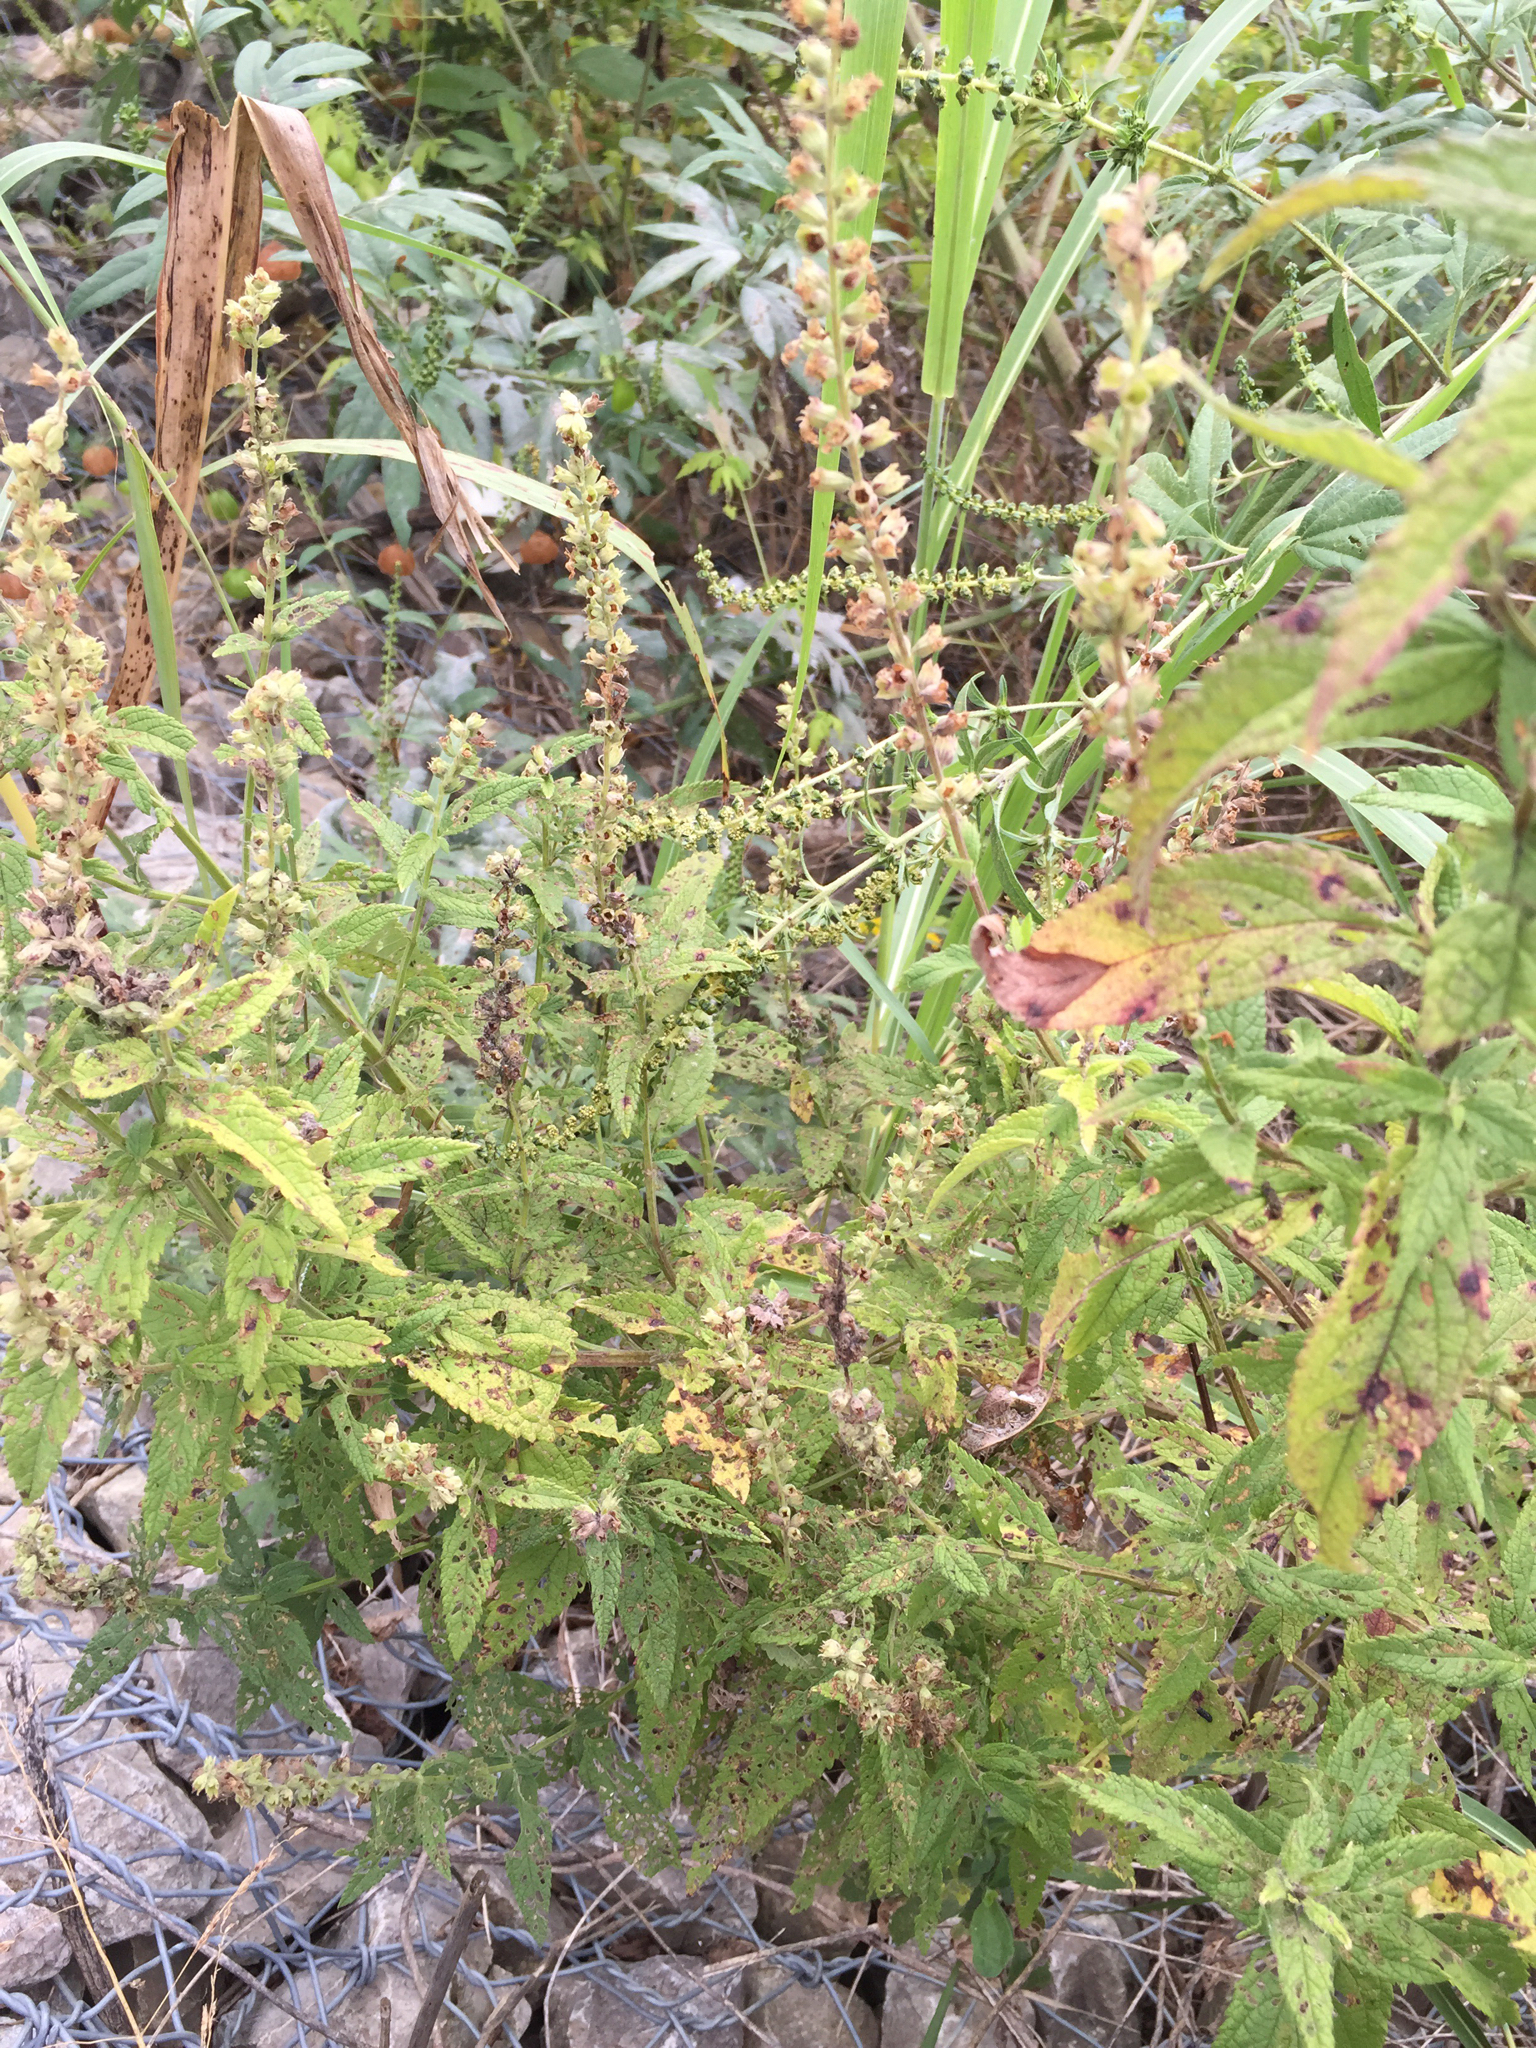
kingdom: Plantae
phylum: Tracheophyta
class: Magnoliopsida
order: Lamiales
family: Lamiaceae
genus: Teucrium
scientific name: Teucrium canadense
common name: American germander
